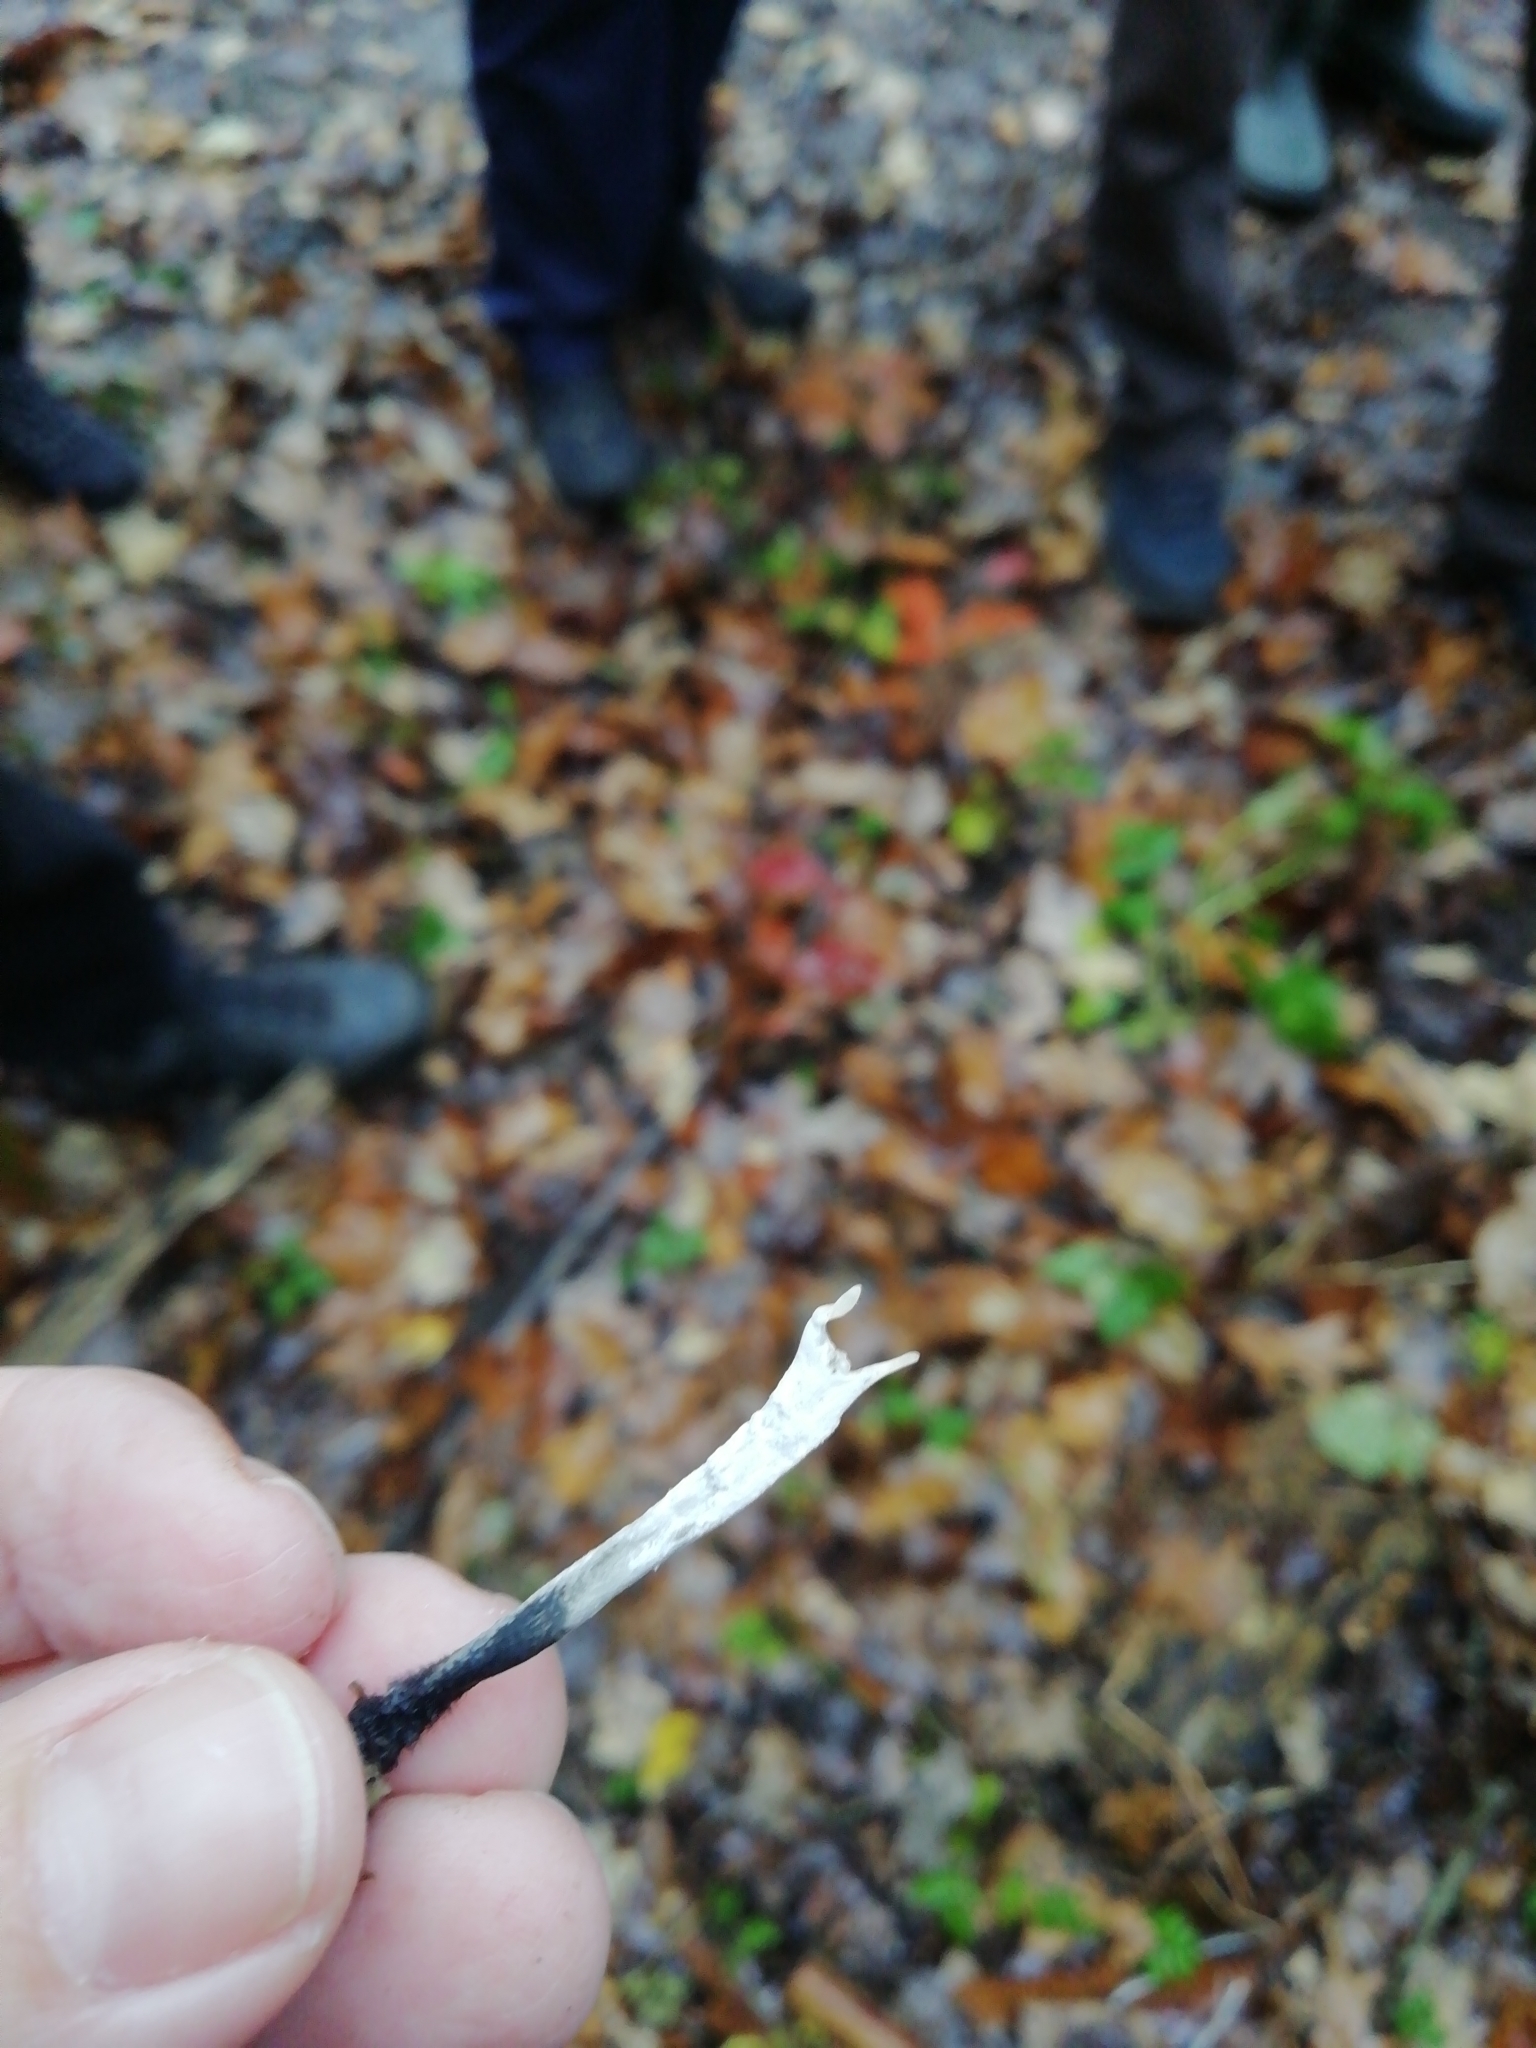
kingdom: Fungi
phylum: Ascomycota
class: Sordariomycetes
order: Xylariales
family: Xylariaceae
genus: Xylaria
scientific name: Xylaria hypoxylon
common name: Candle-snuff fungus
